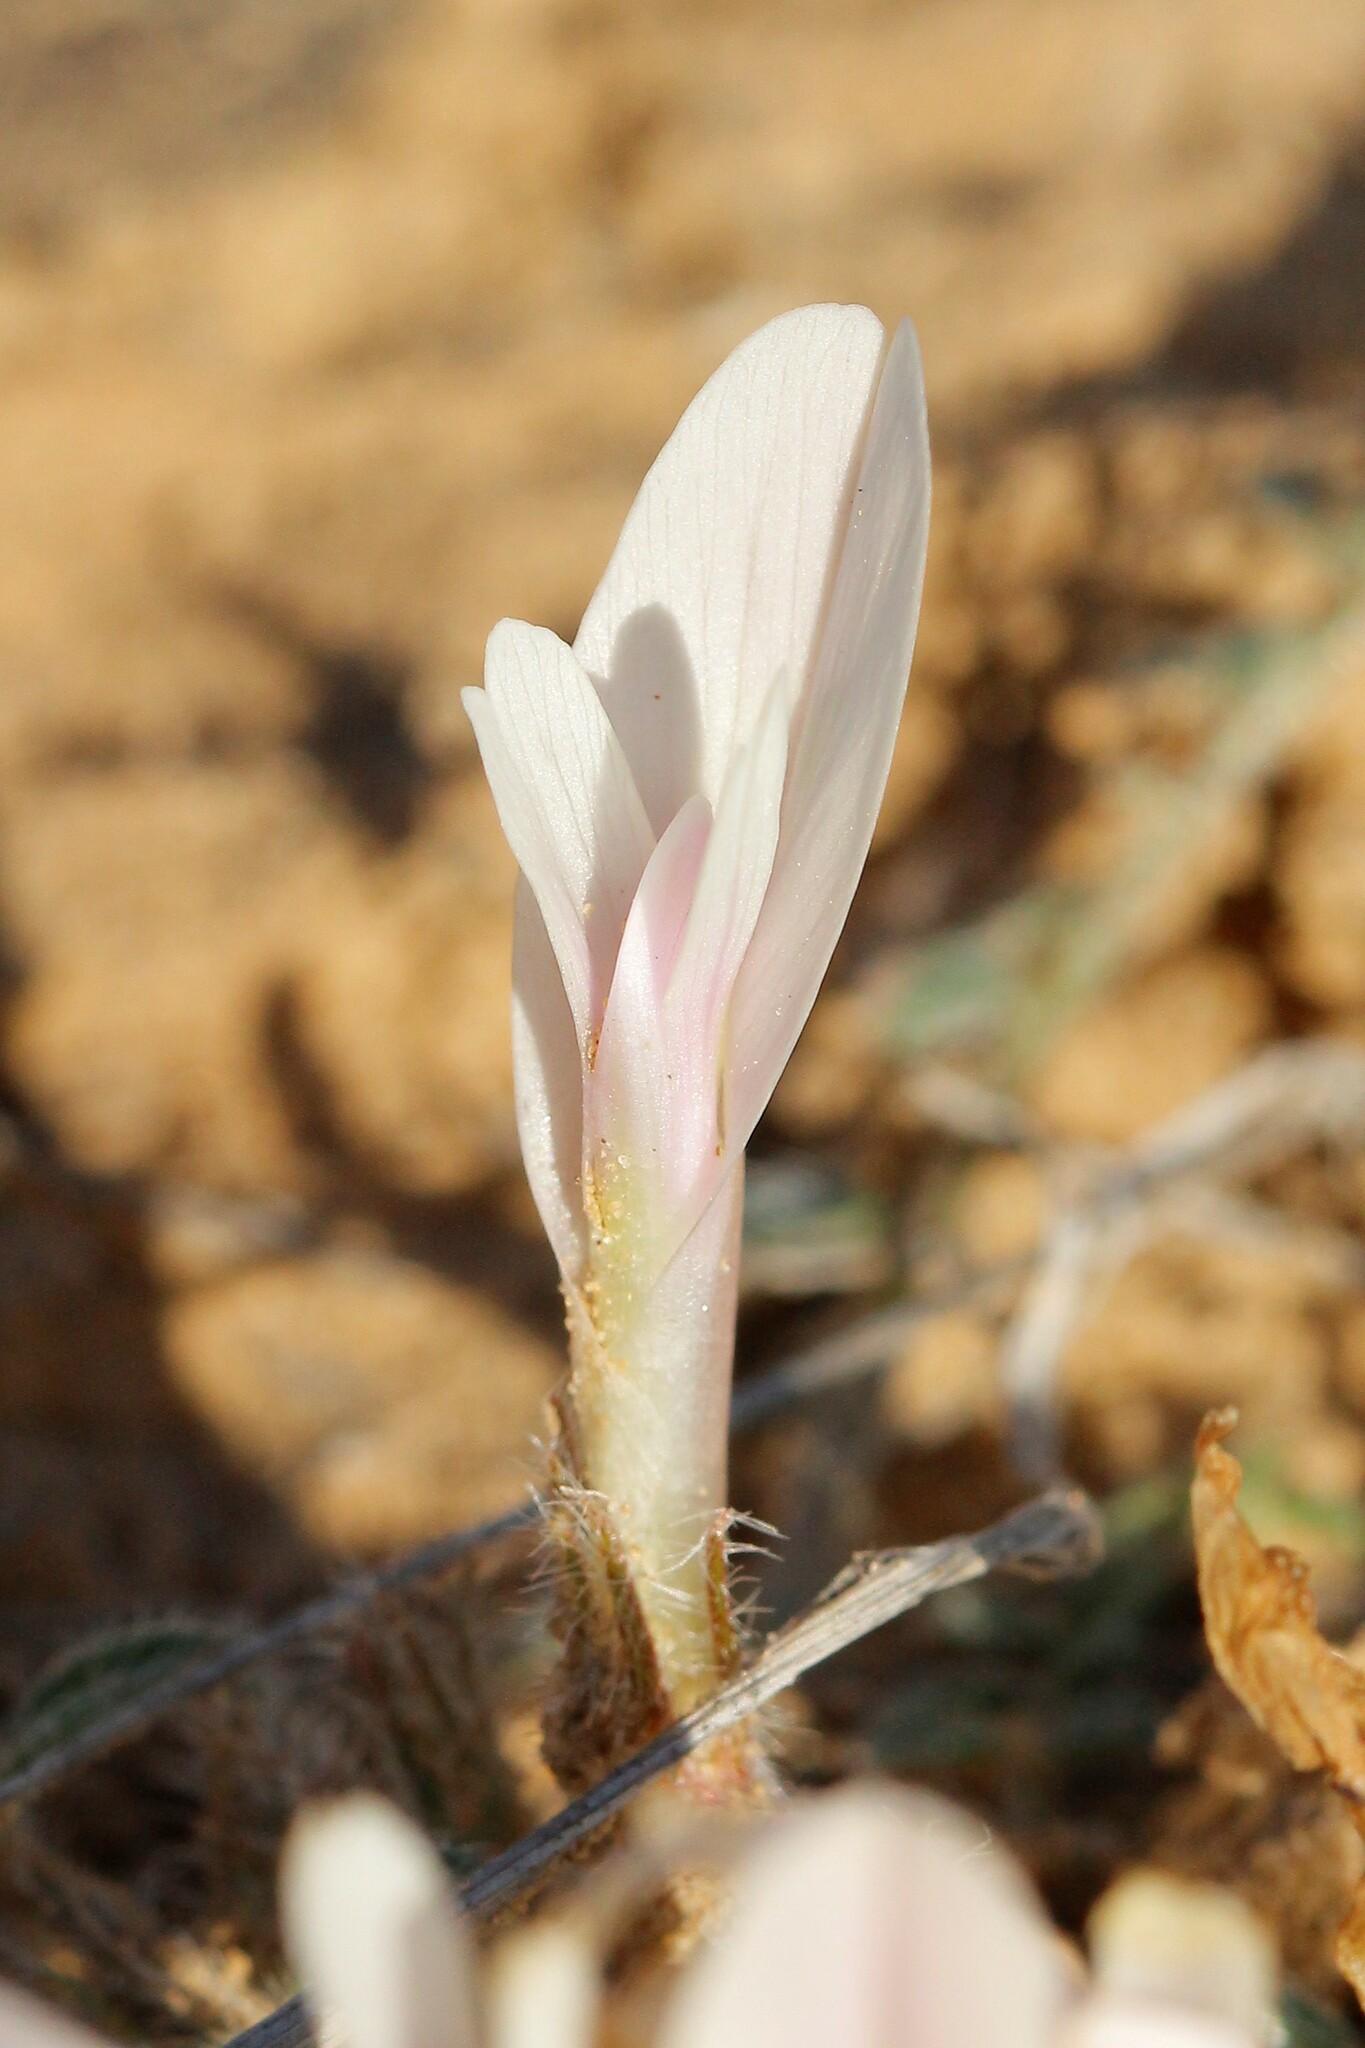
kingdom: Plantae
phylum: Tracheophyta
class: Magnoliopsida
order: Fabales
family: Fabaceae
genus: Astragalus
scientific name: Astragalus dolichophyllus
